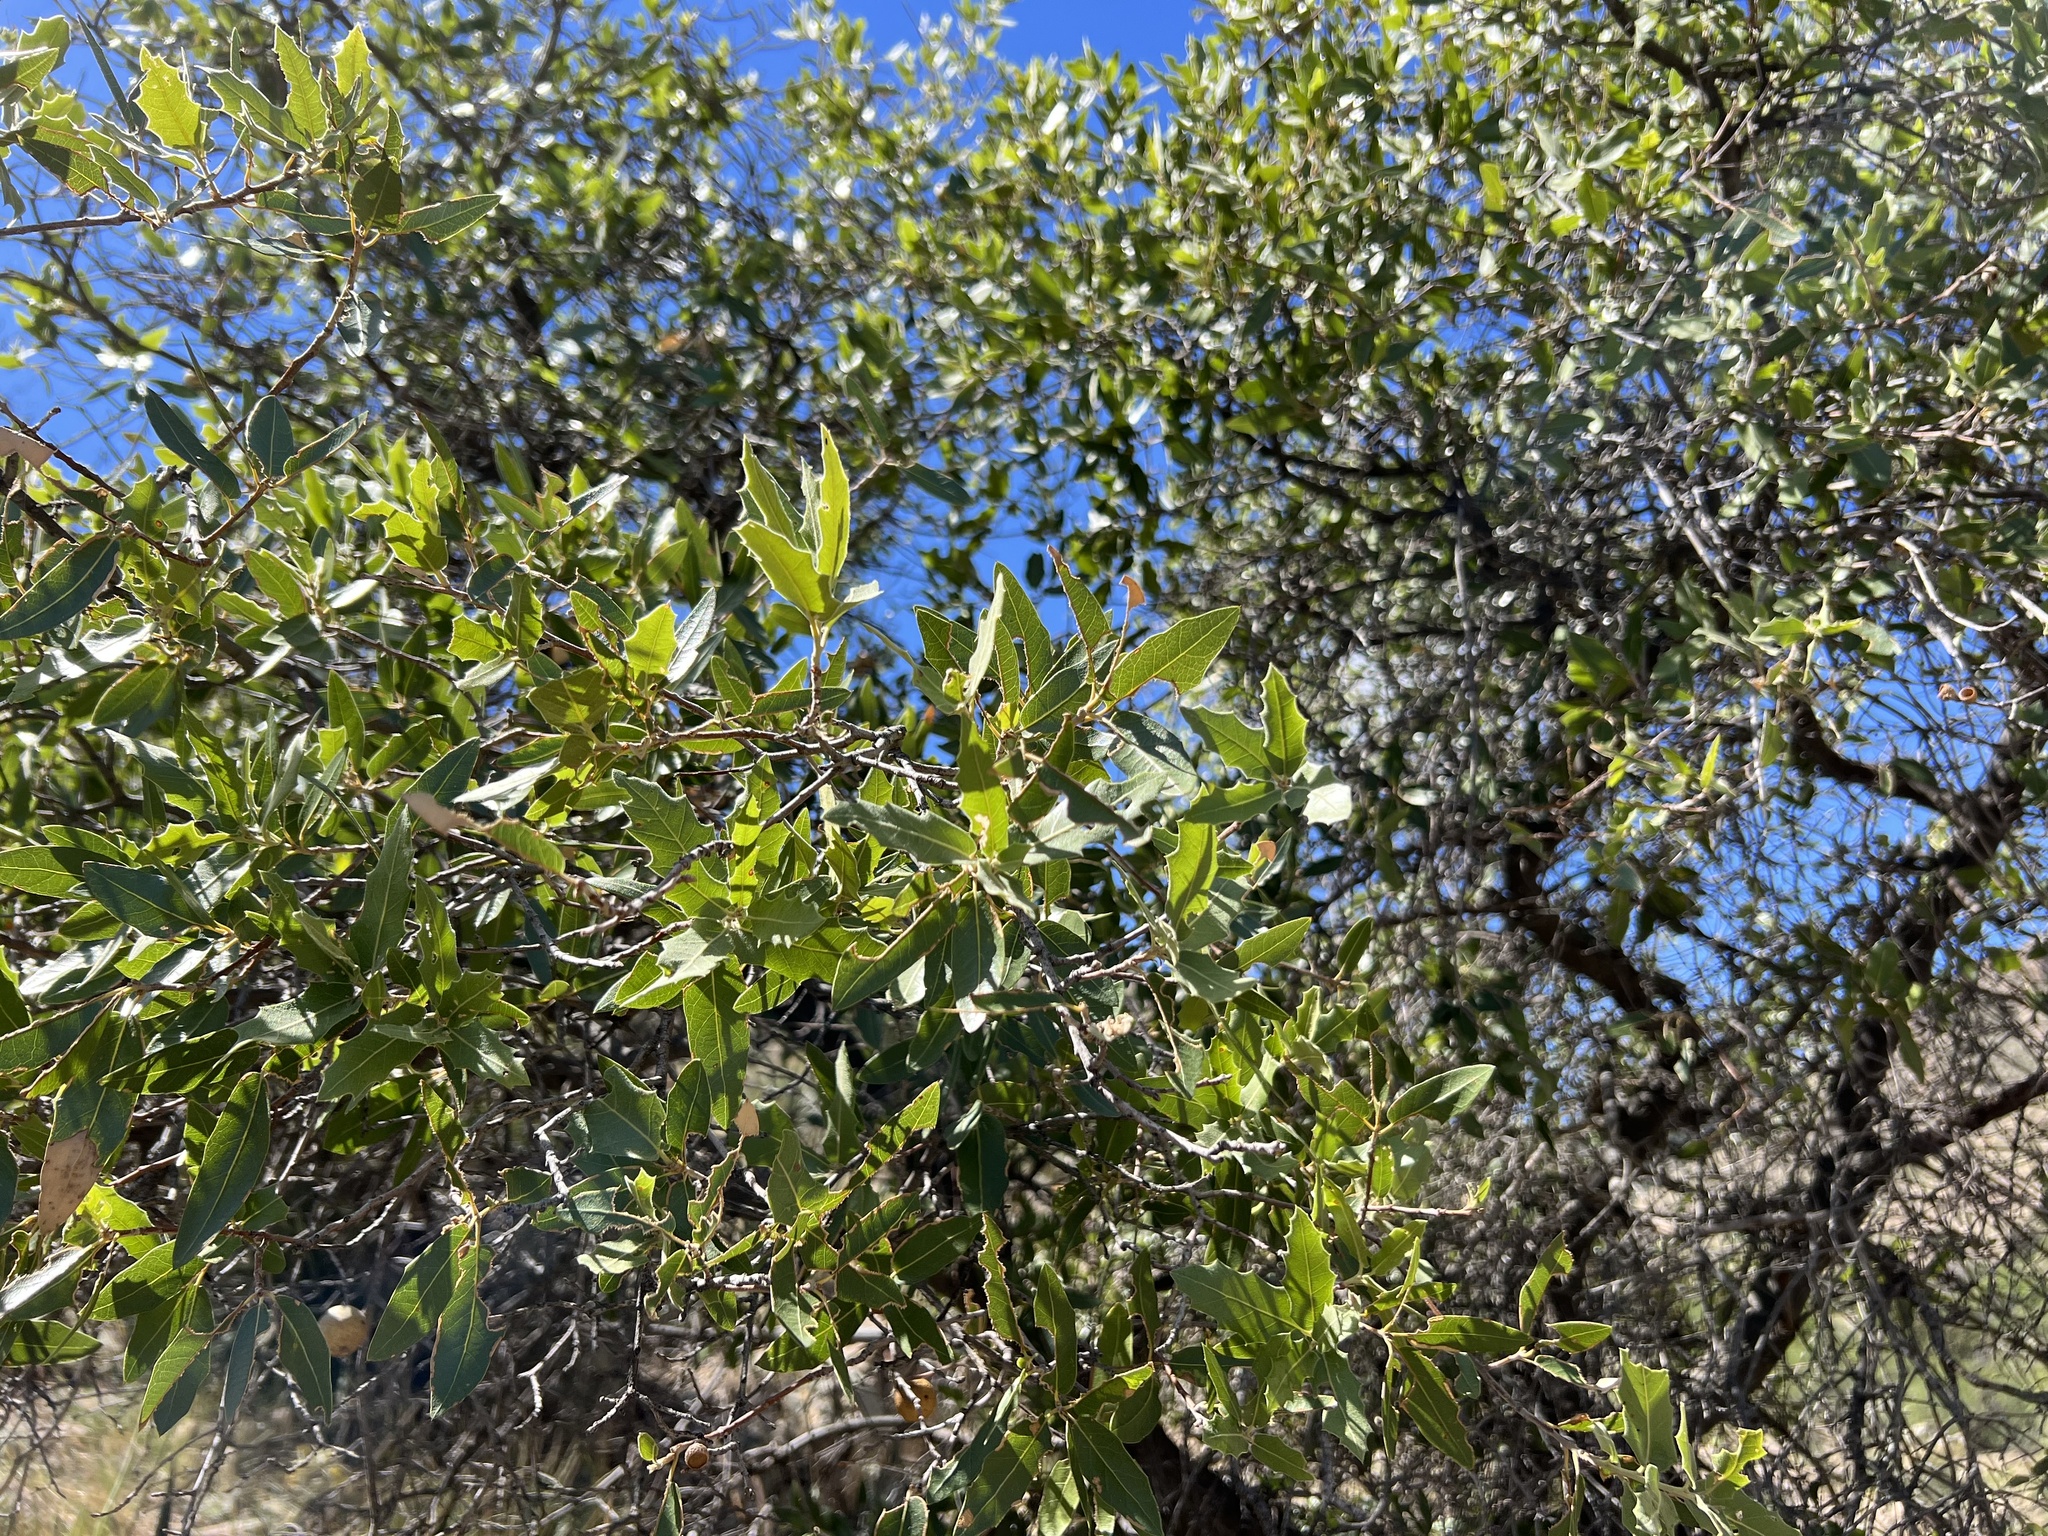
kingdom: Plantae
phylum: Tracheophyta
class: Magnoliopsida
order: Fagales
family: Fagaceae
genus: Quercus
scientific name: Quercus emoryi
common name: Emory oak
